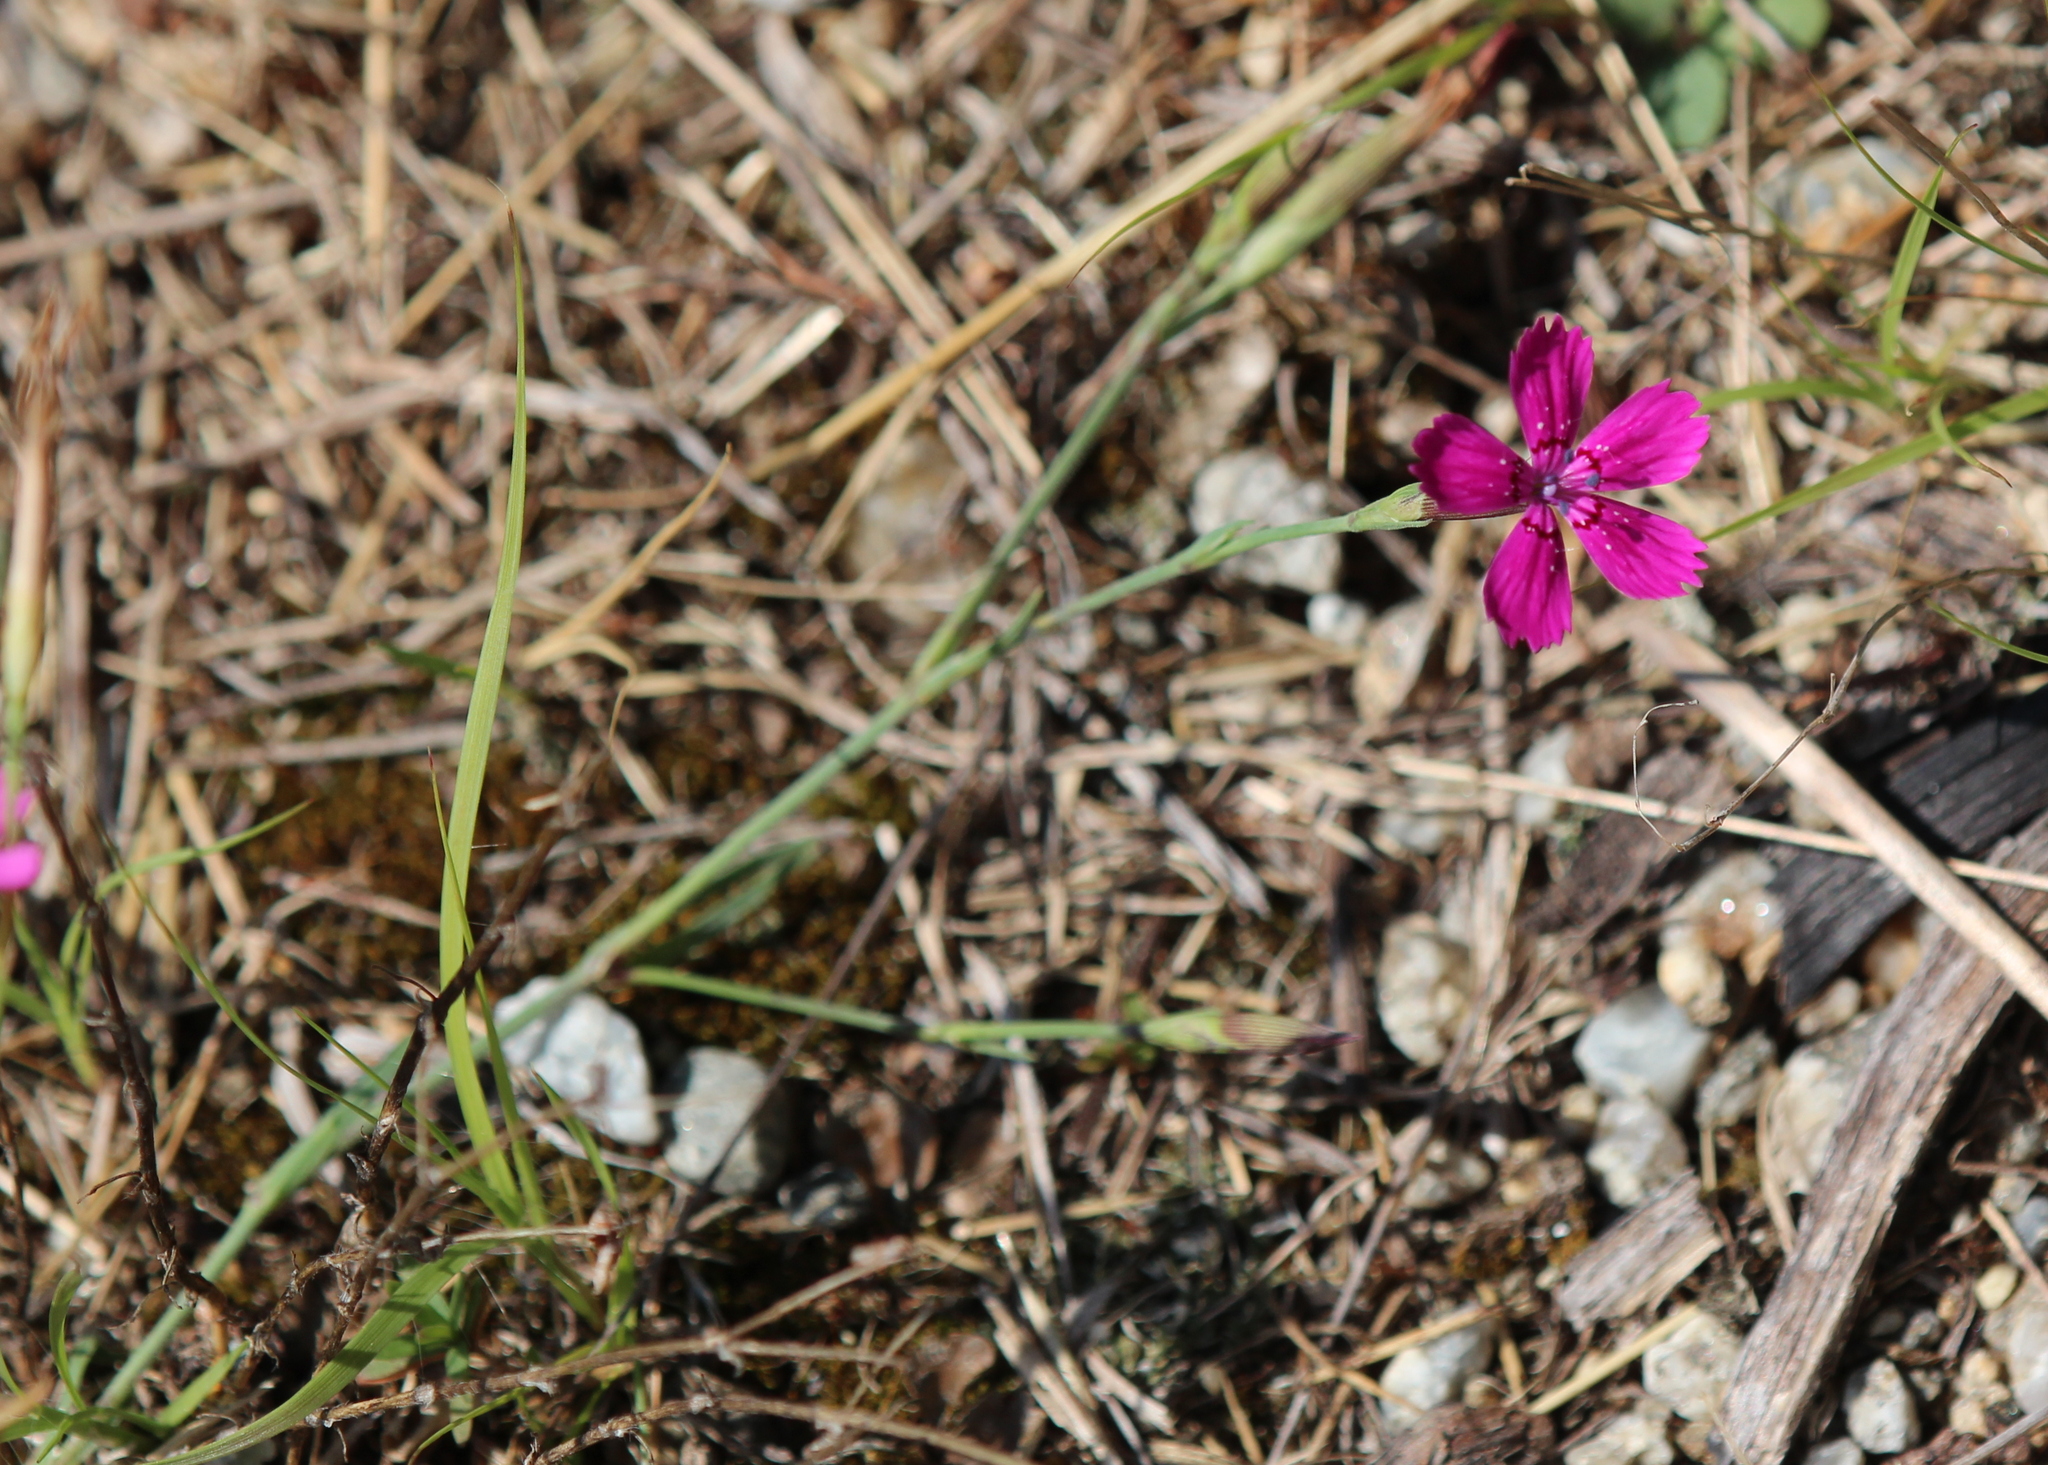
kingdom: Plantae
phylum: Tracheophyta
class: Magnoliopsida
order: Caryophyllales
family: Caryophyllaceae
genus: Dianthus
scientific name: Dianthus deltoides
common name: Maiden pink
